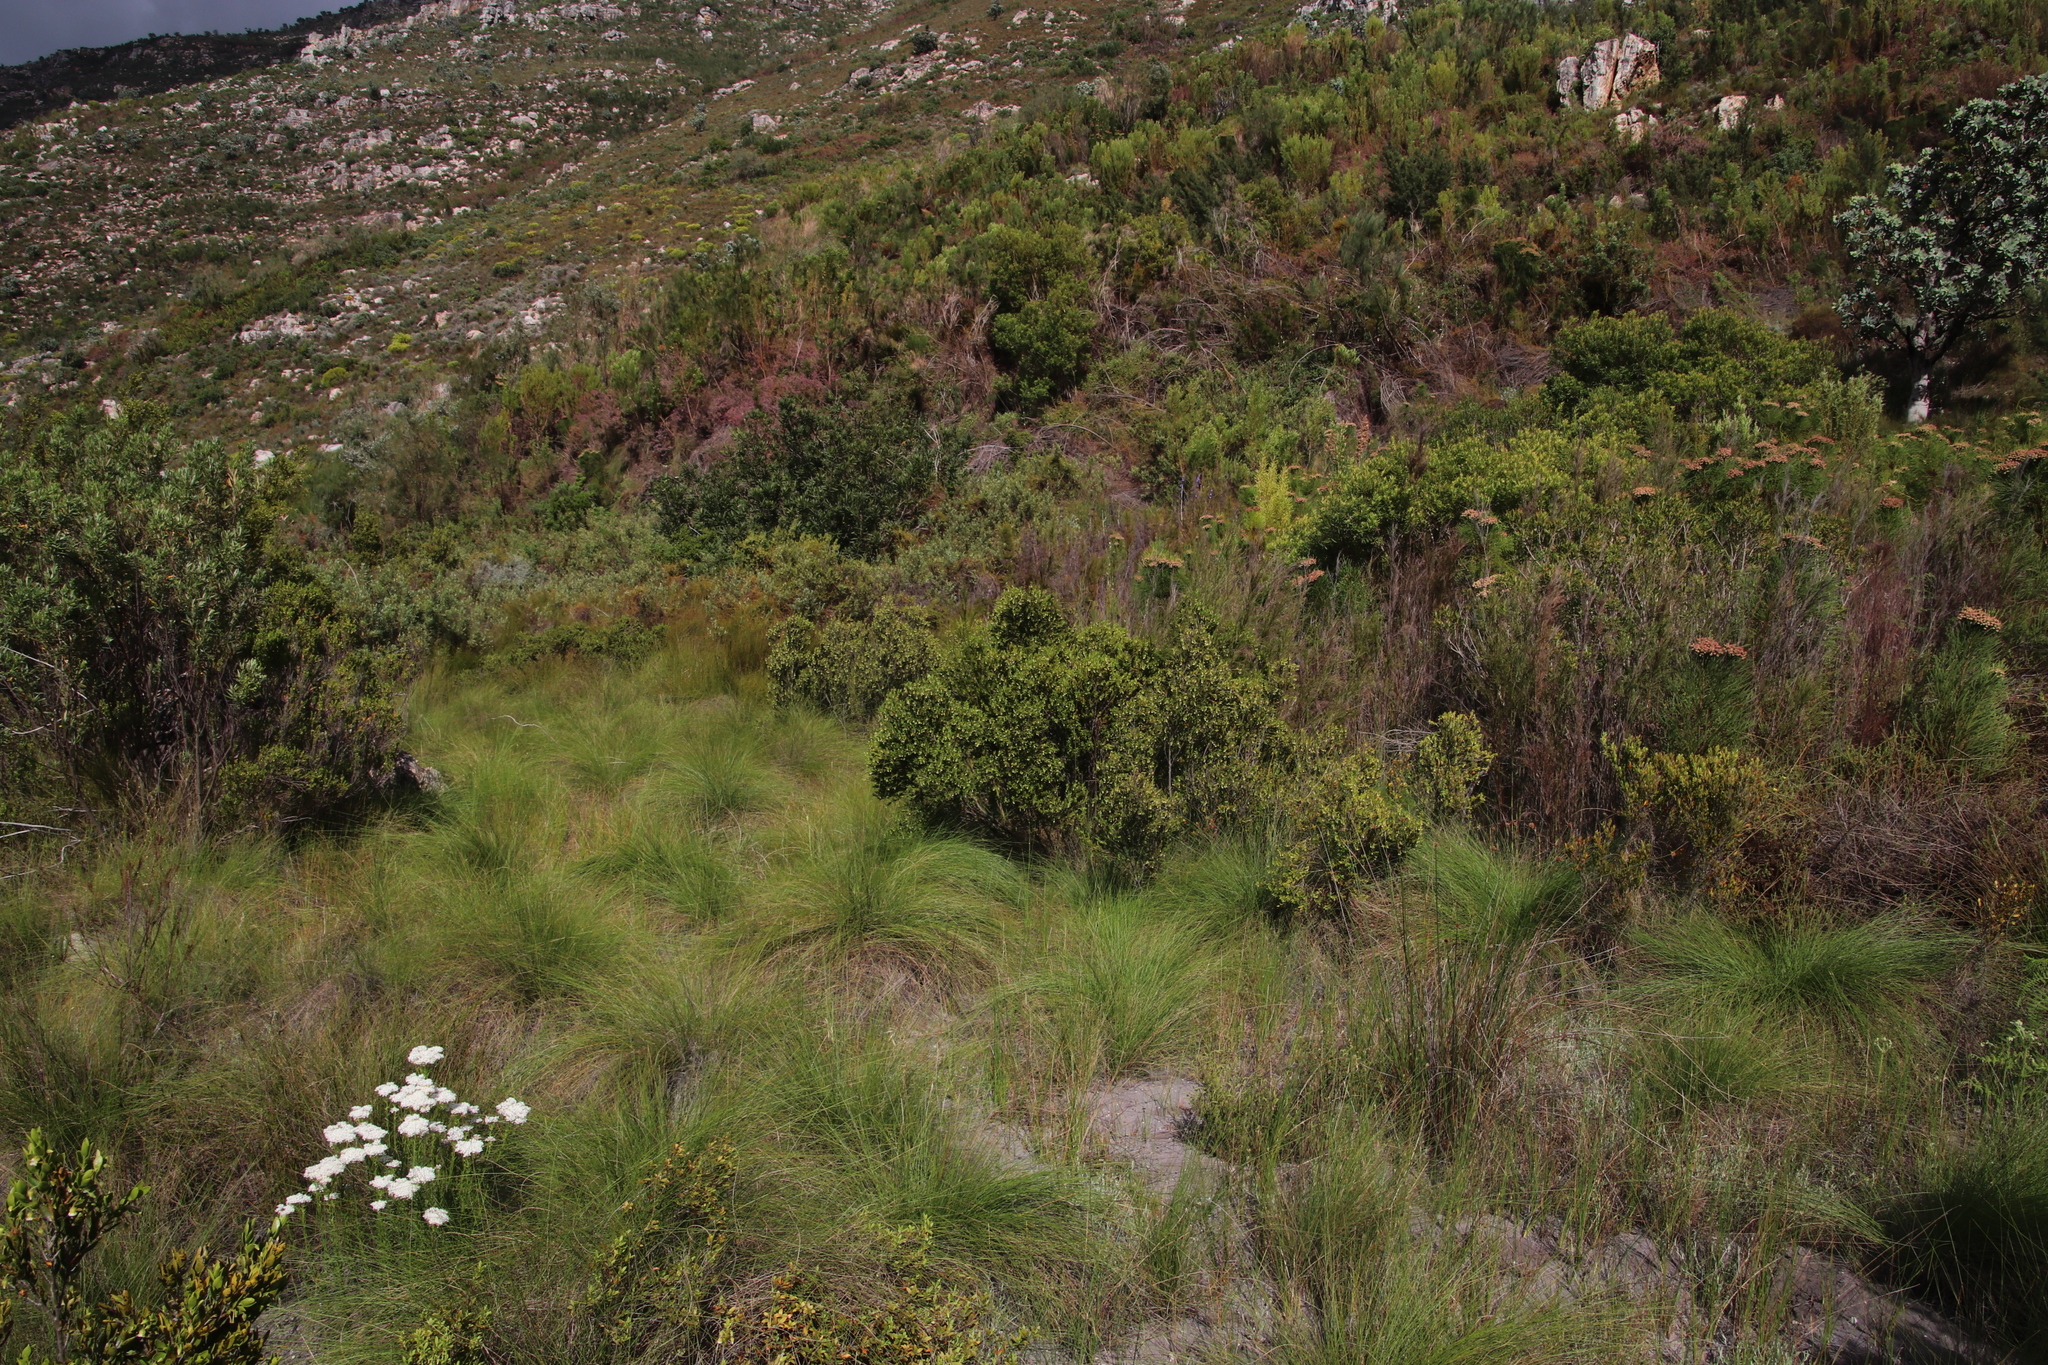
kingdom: Plantae
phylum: Tracheophyta
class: Magnoliopsida
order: Ericales
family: Ebenaceae
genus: Diospyros
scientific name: Diospyros glabra
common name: Fynbos star apple
